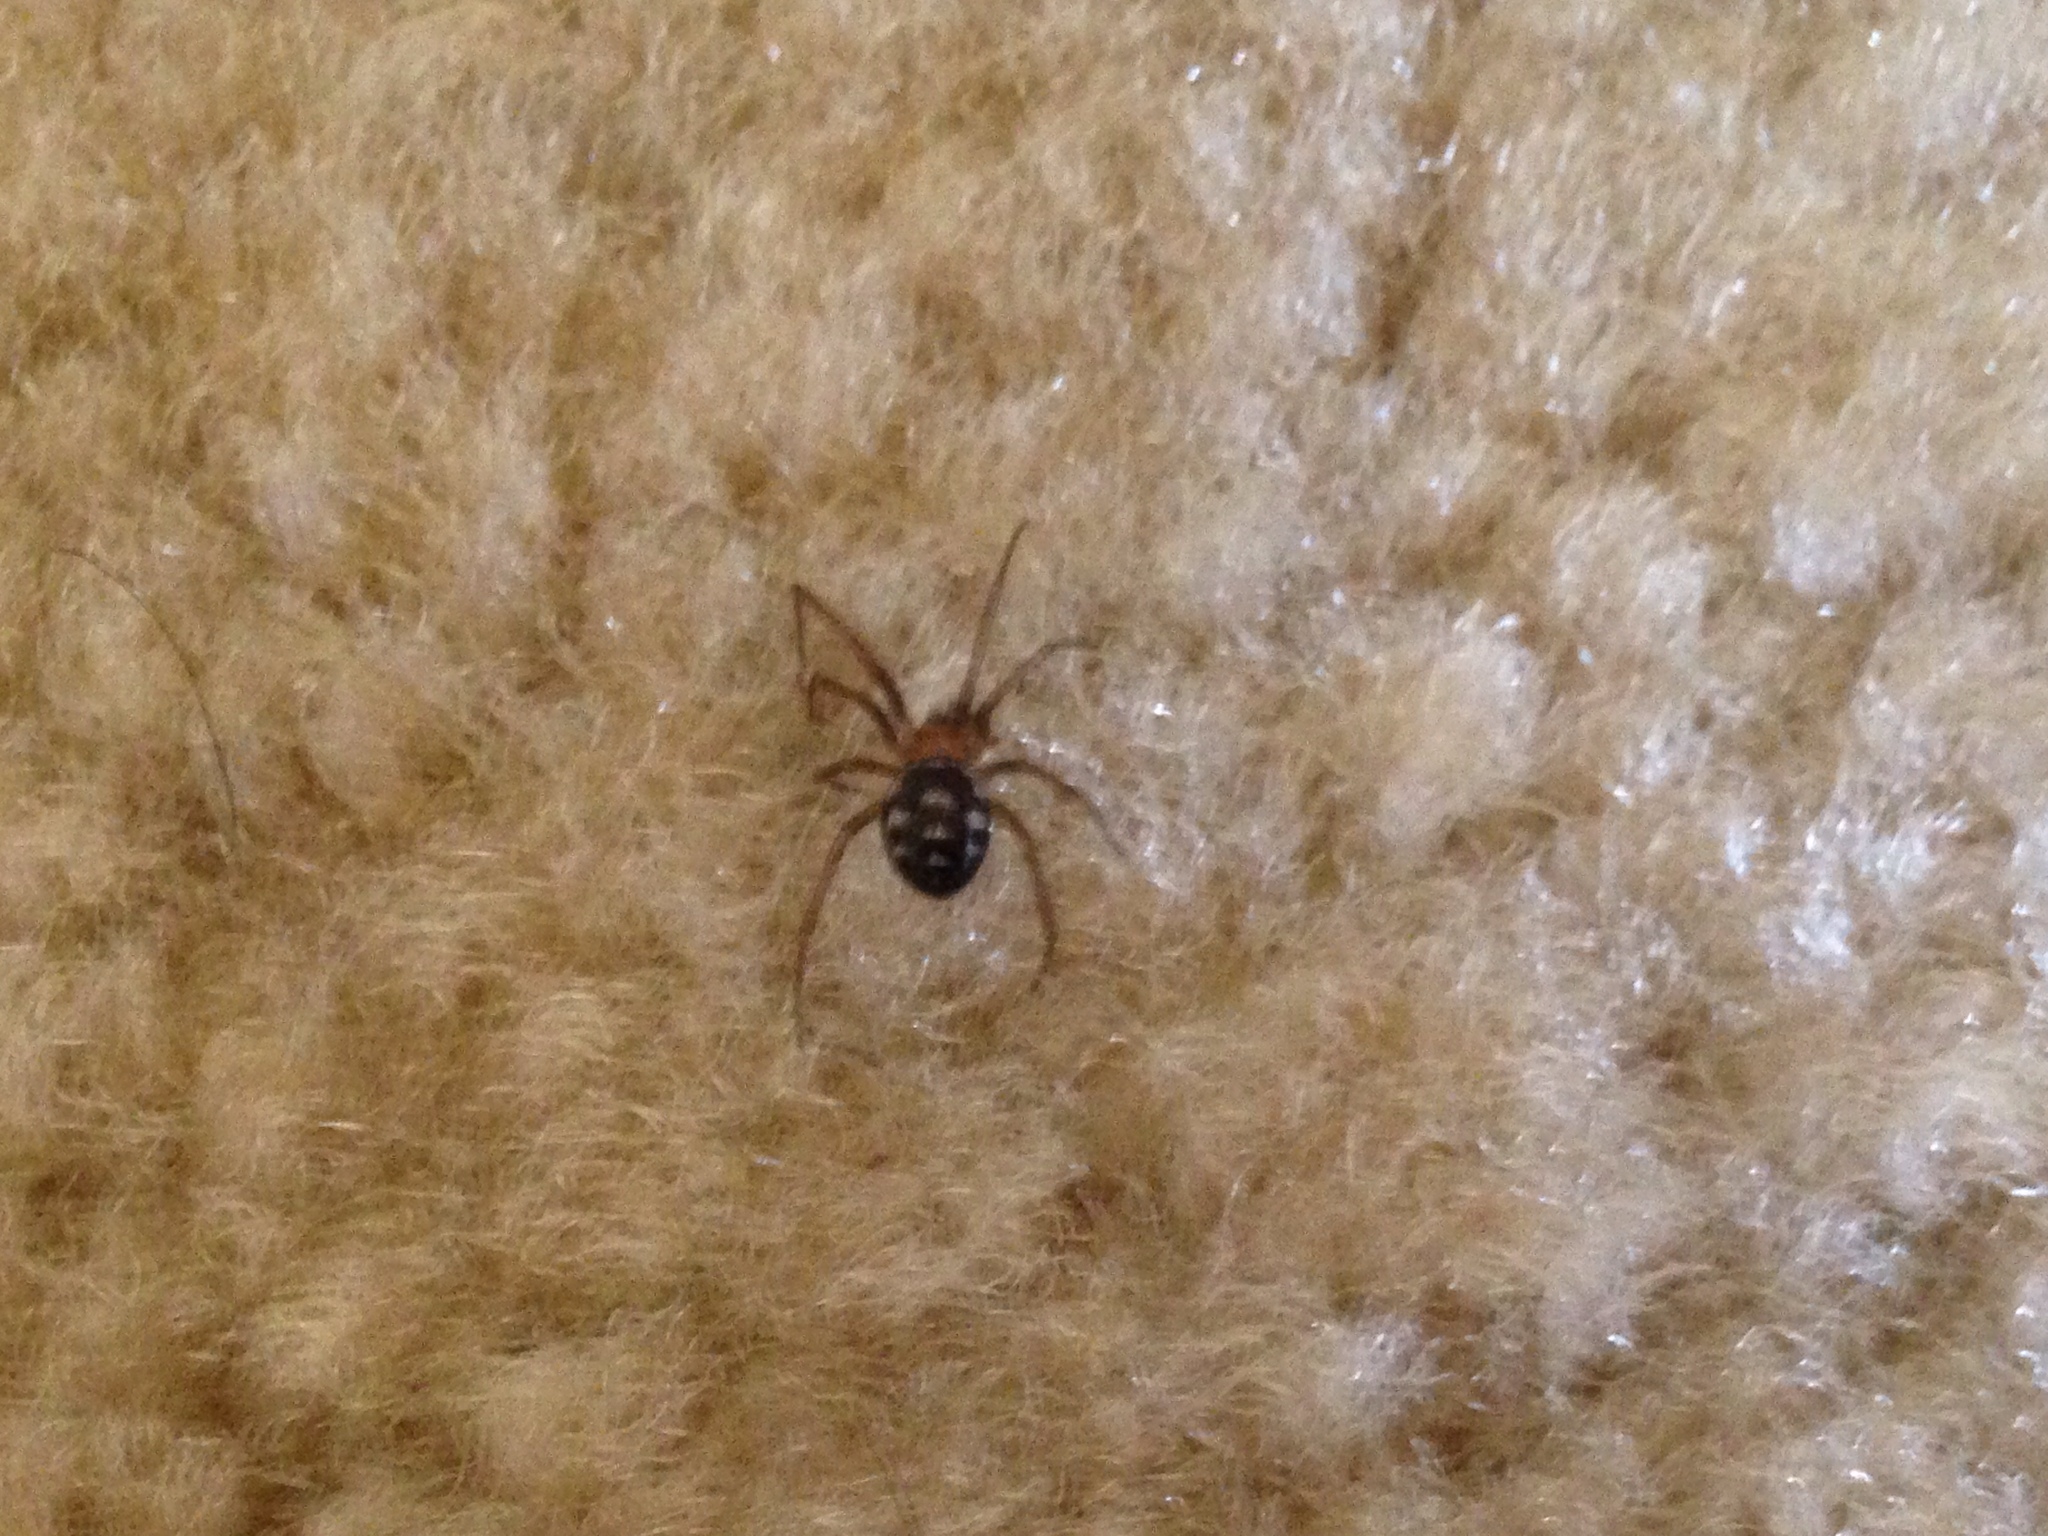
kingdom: Animalia
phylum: Arthropoda
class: Arachnida
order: Araneae
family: Theridiidae
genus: Steatoda
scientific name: Steatoda grossa
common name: False black widow
